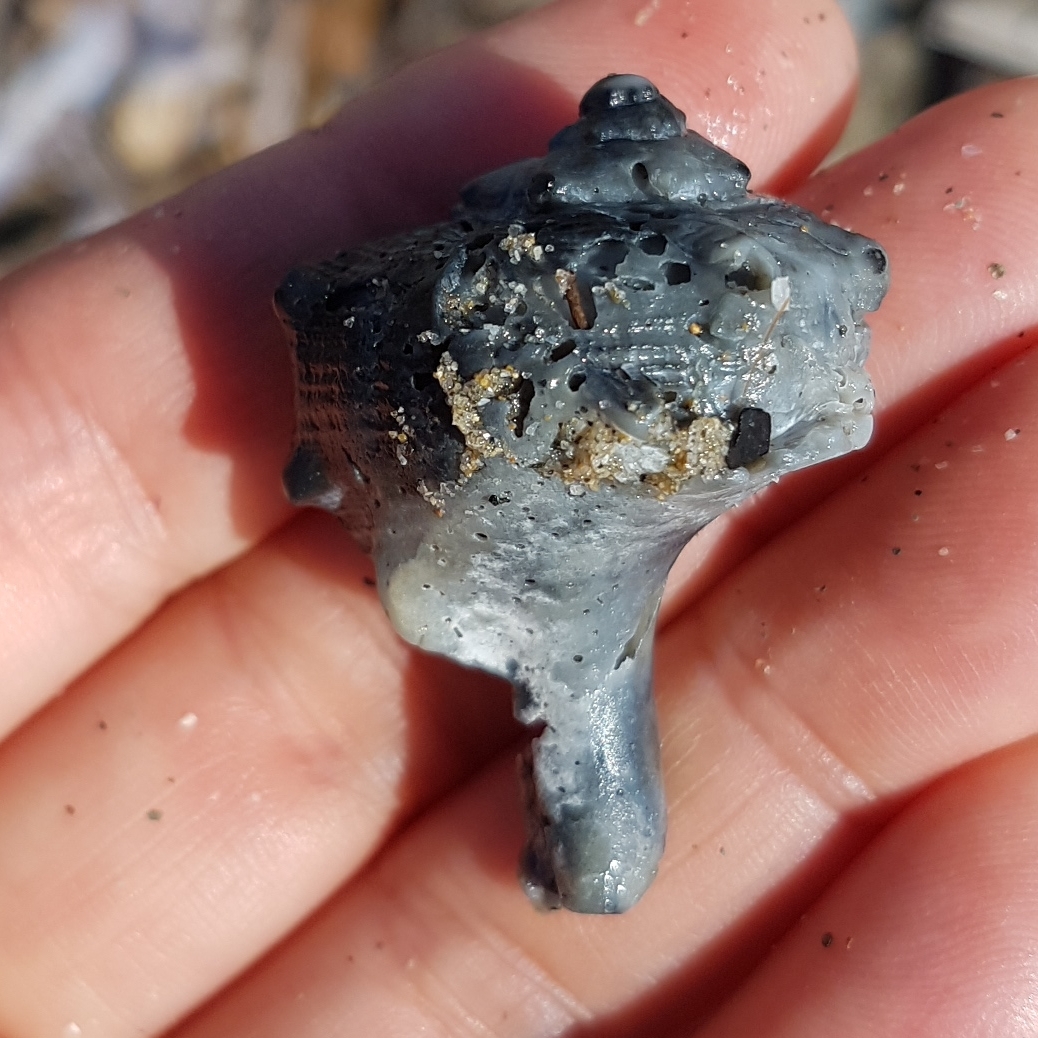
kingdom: Animalia
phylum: Mollusca
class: Gastropoda
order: Neogastropoda
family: Muricidae
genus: Bolinus
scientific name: Bolinus brandaris
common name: Dye murex
